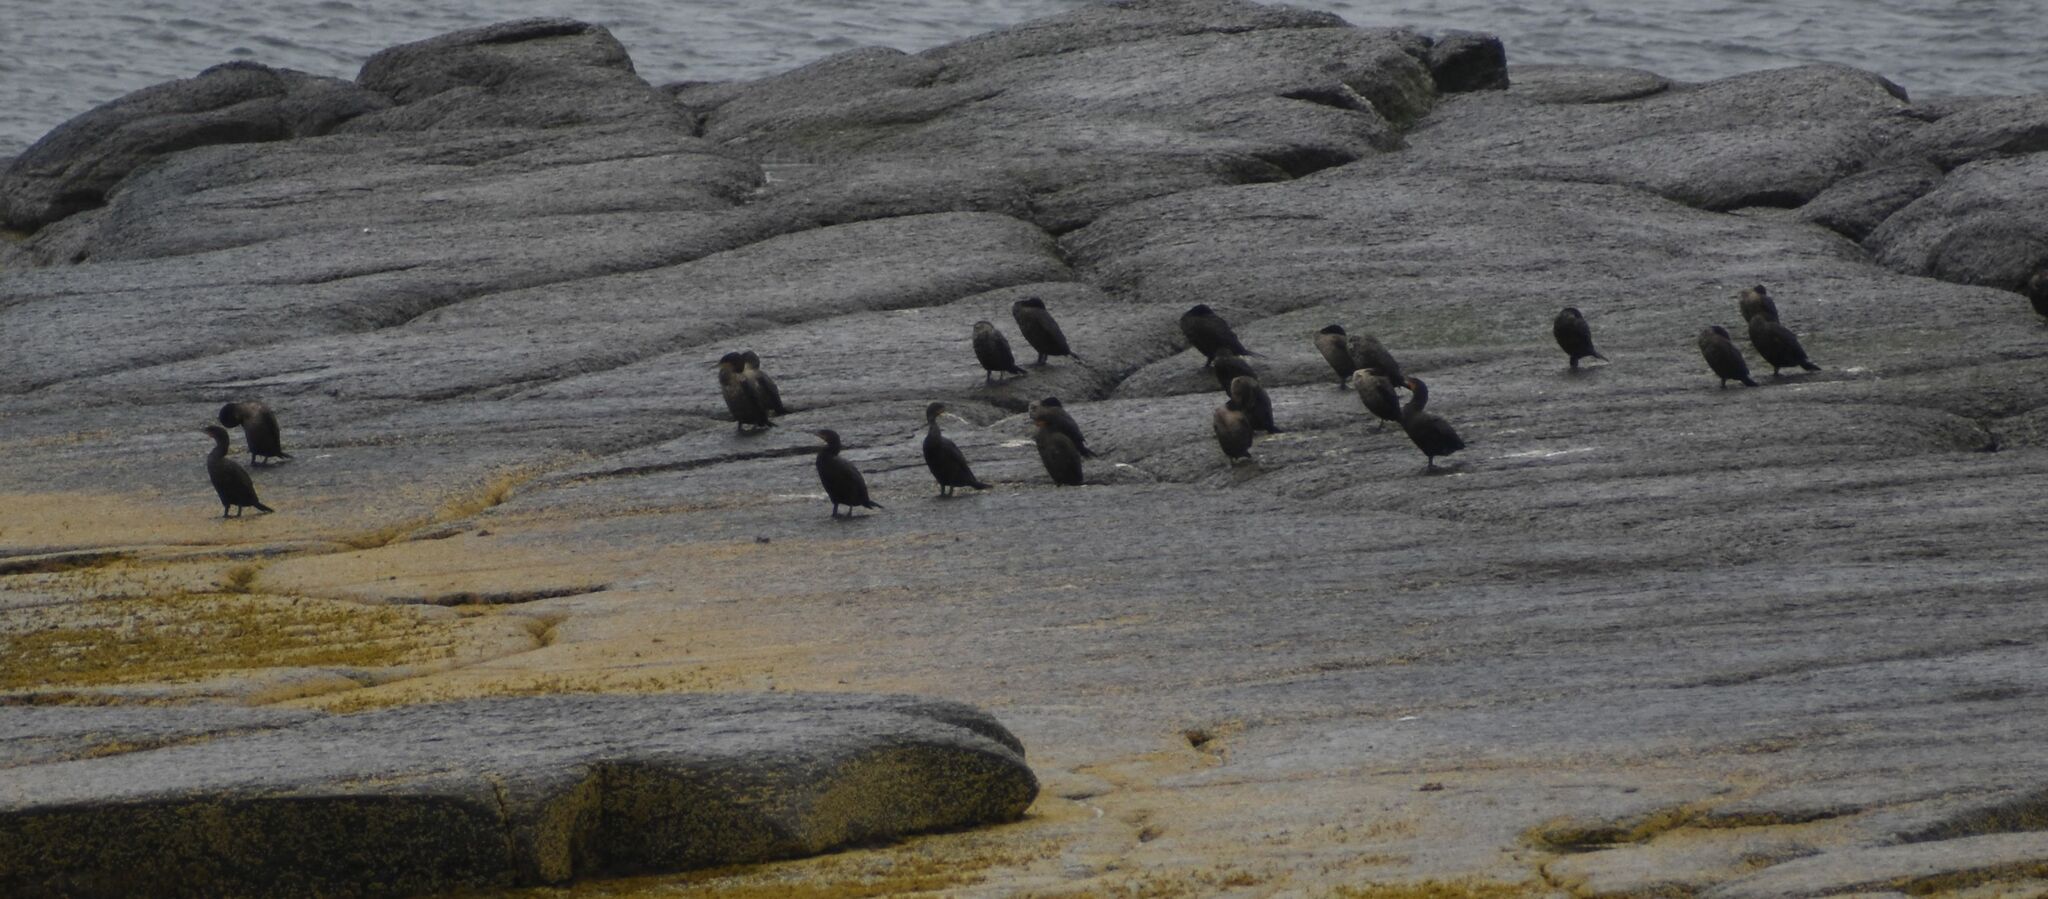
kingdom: Animalia
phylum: Chordata
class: Aves
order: Suliformes
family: Phalacrocoracidae
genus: Phalacrocorax
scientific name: Phalacrocorax auritus
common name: Double-crested cormorant
